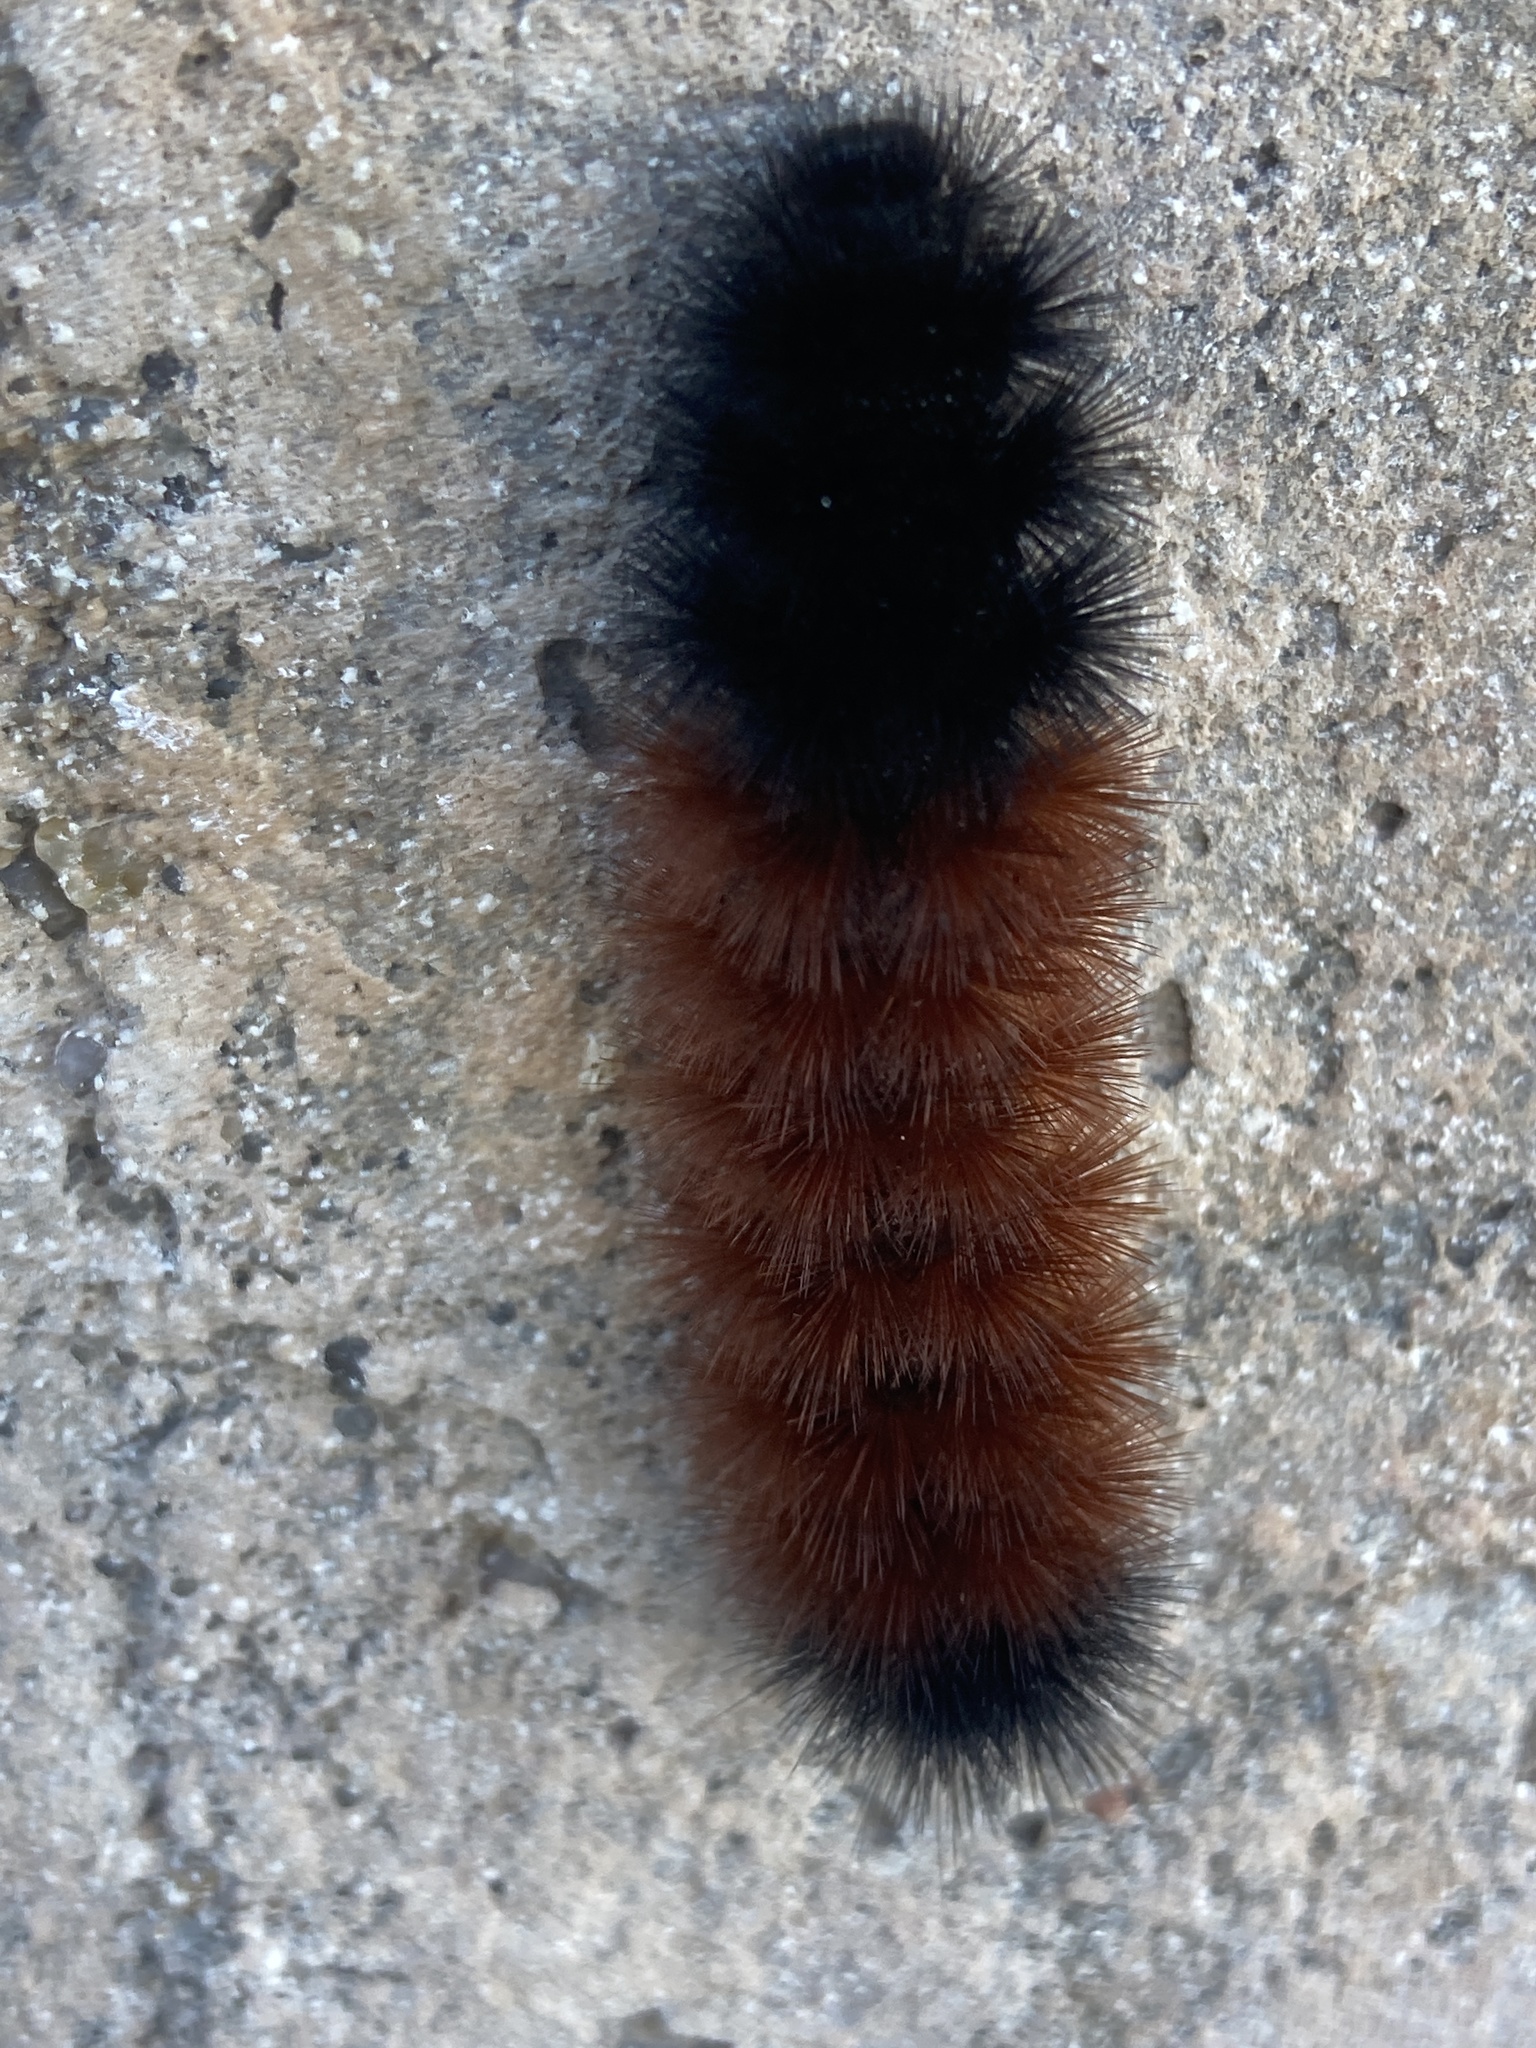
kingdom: Animalia
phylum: Arthropoda
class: Insecta
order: Lepidoptera
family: Erebidae
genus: Pyrrharctia
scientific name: Pyrrharctia isabella
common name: Isabella tiger moth
